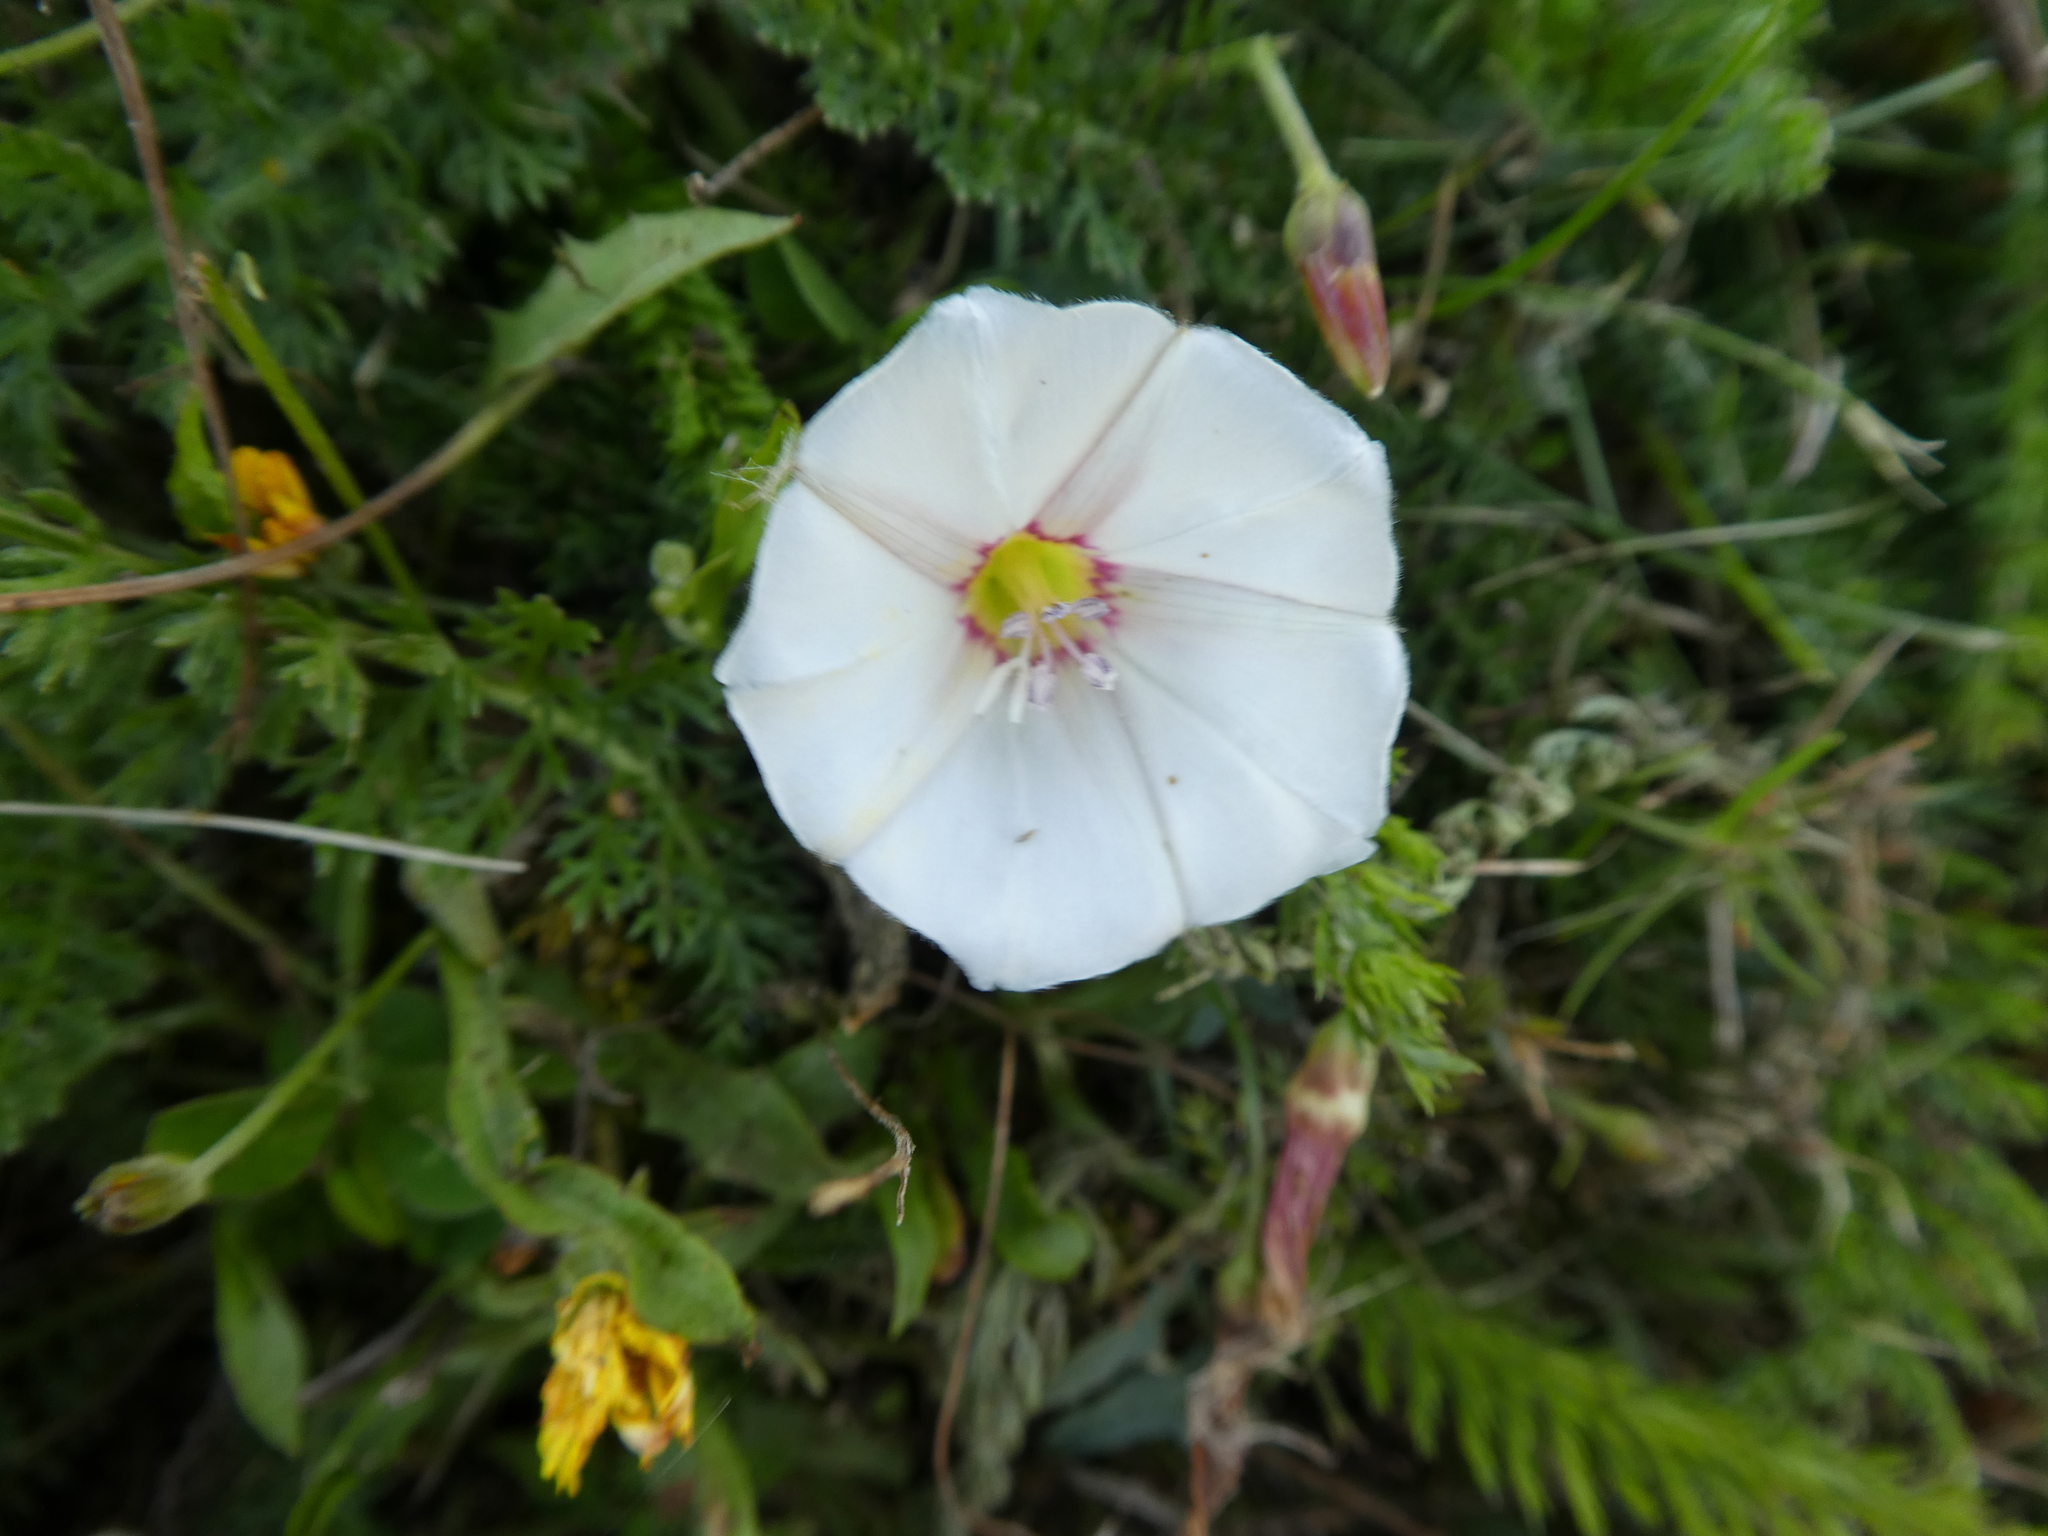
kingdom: Plantae
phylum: Tracheophyta
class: Magnoliopsida
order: Solanales
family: Convolvulaceae
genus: Convolvulus
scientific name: Convolvulus arvensis
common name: Field bindweed
